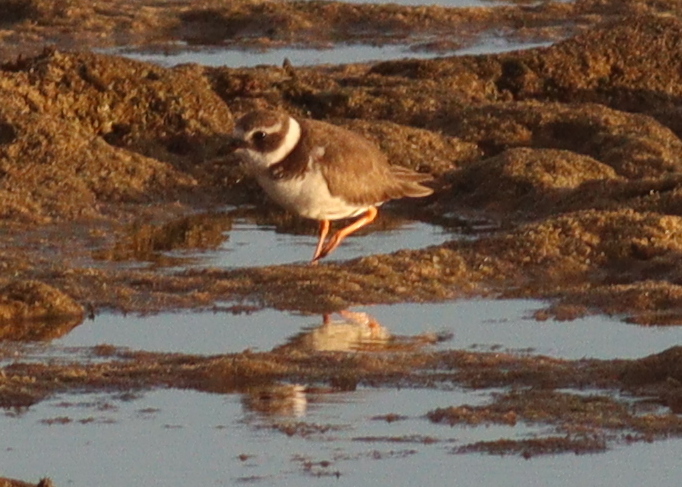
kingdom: Animalia
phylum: Chordata
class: Aves
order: Charadriiformes
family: Charadriidae
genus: Charadrius
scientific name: Charadrius hiaticula
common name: Common ringed plover
